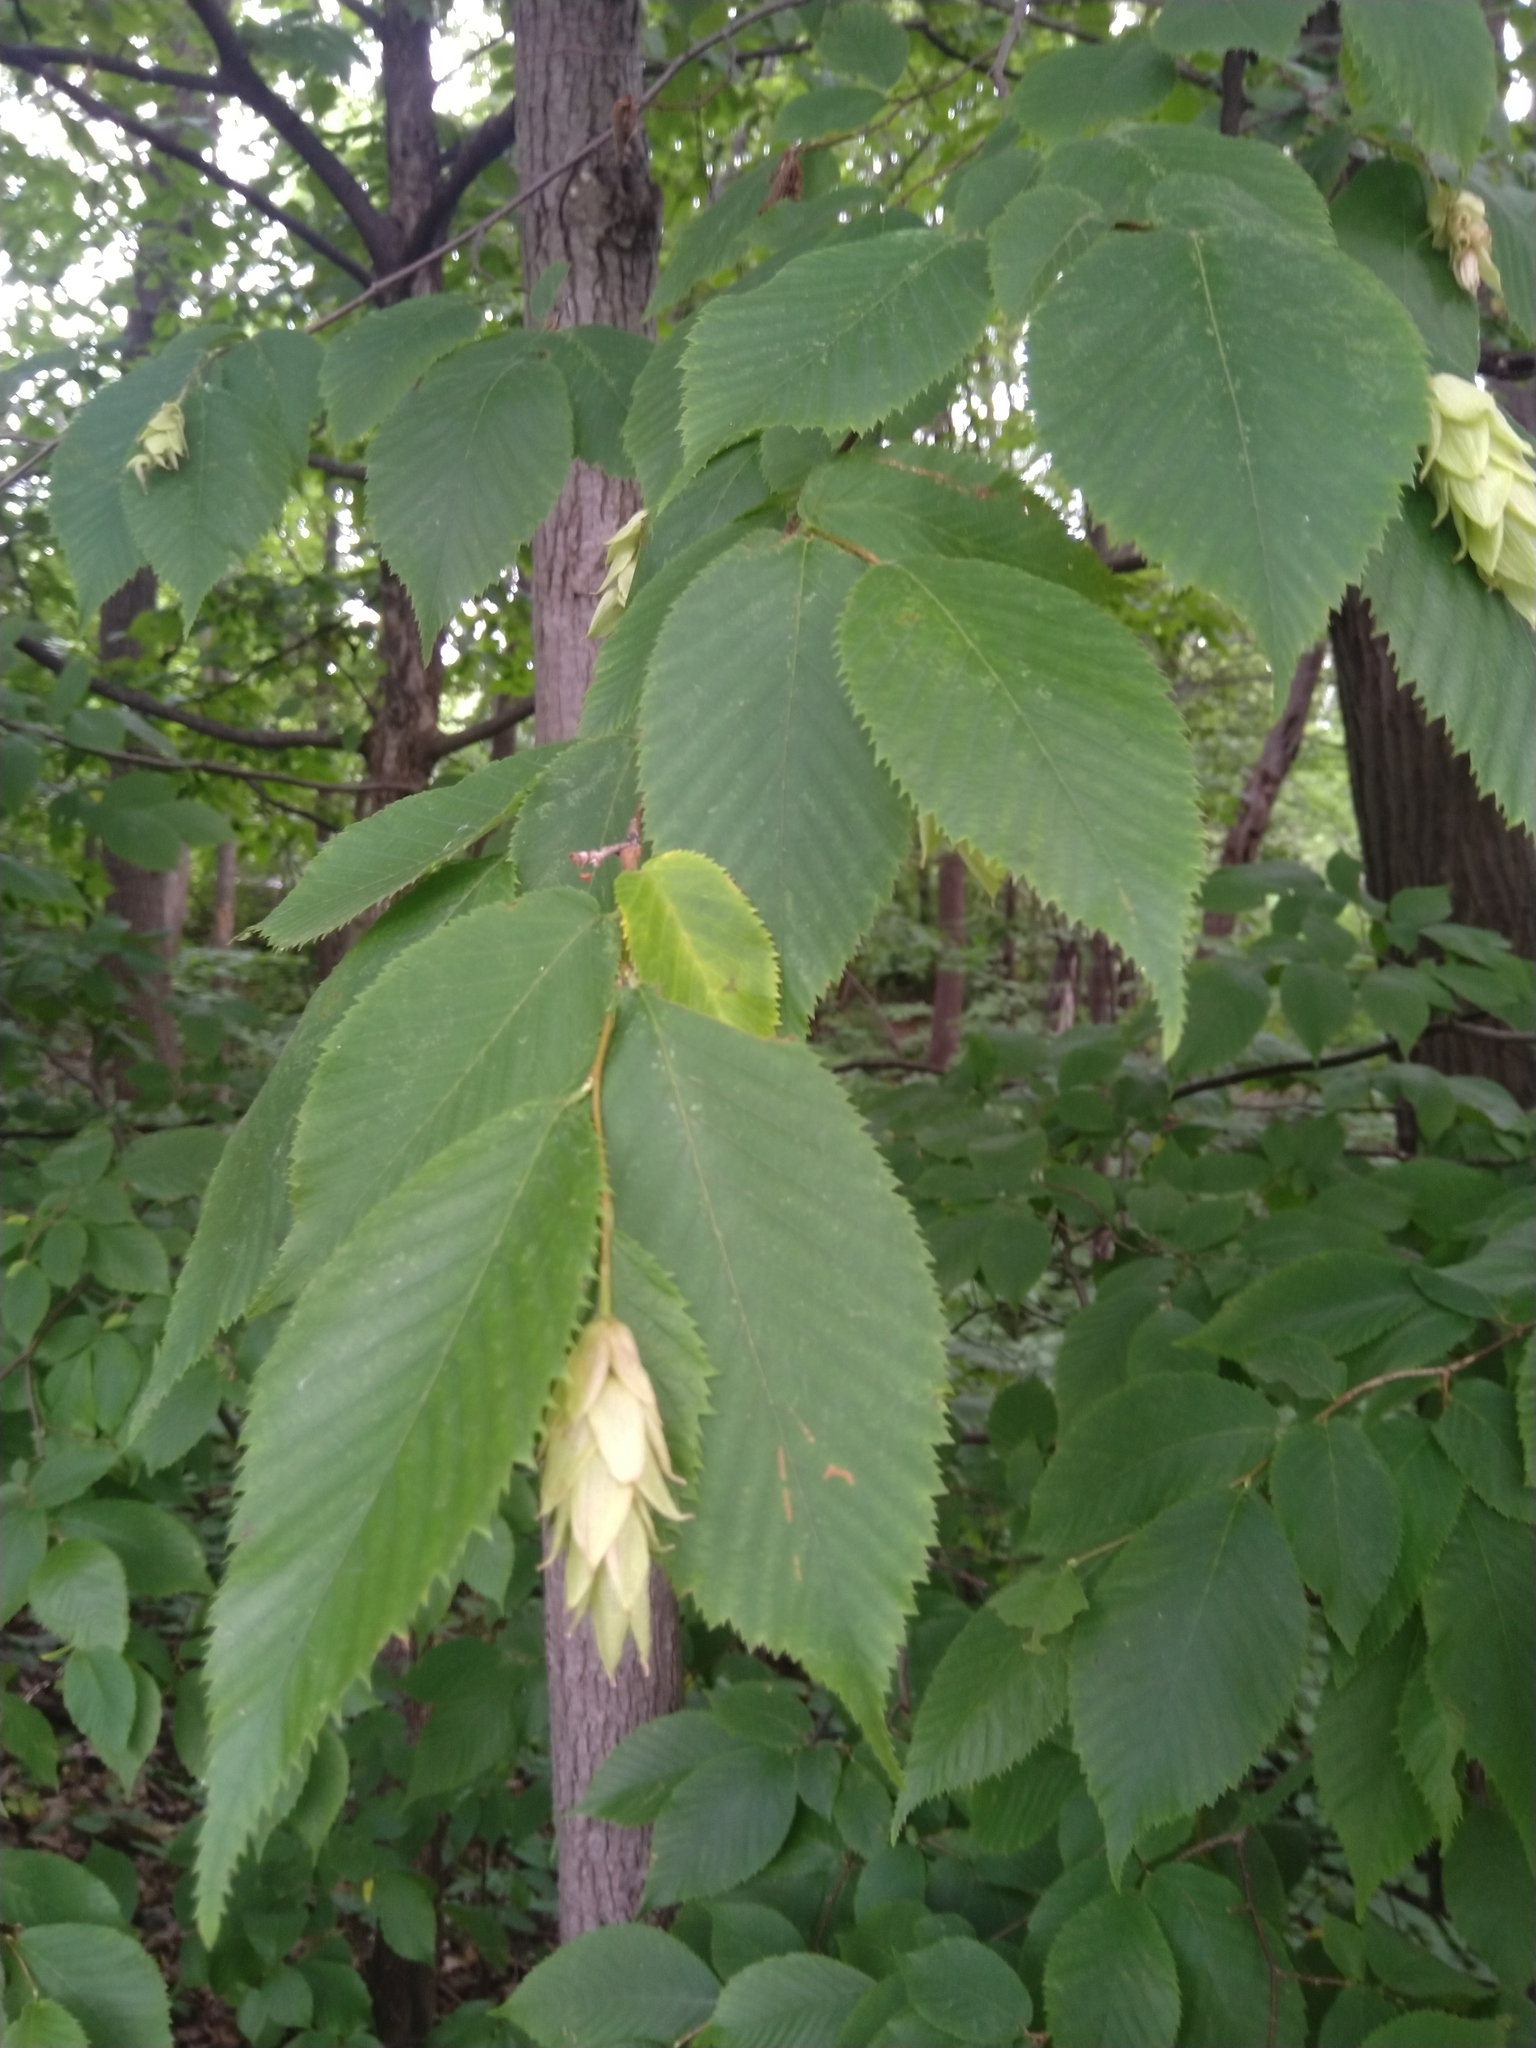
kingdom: Plantae
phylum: Tracheophyta
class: Magnoliopsida
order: Fagales
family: Betulaceae
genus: Ostrya
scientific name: Ostrya virginiana
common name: Ironwood
